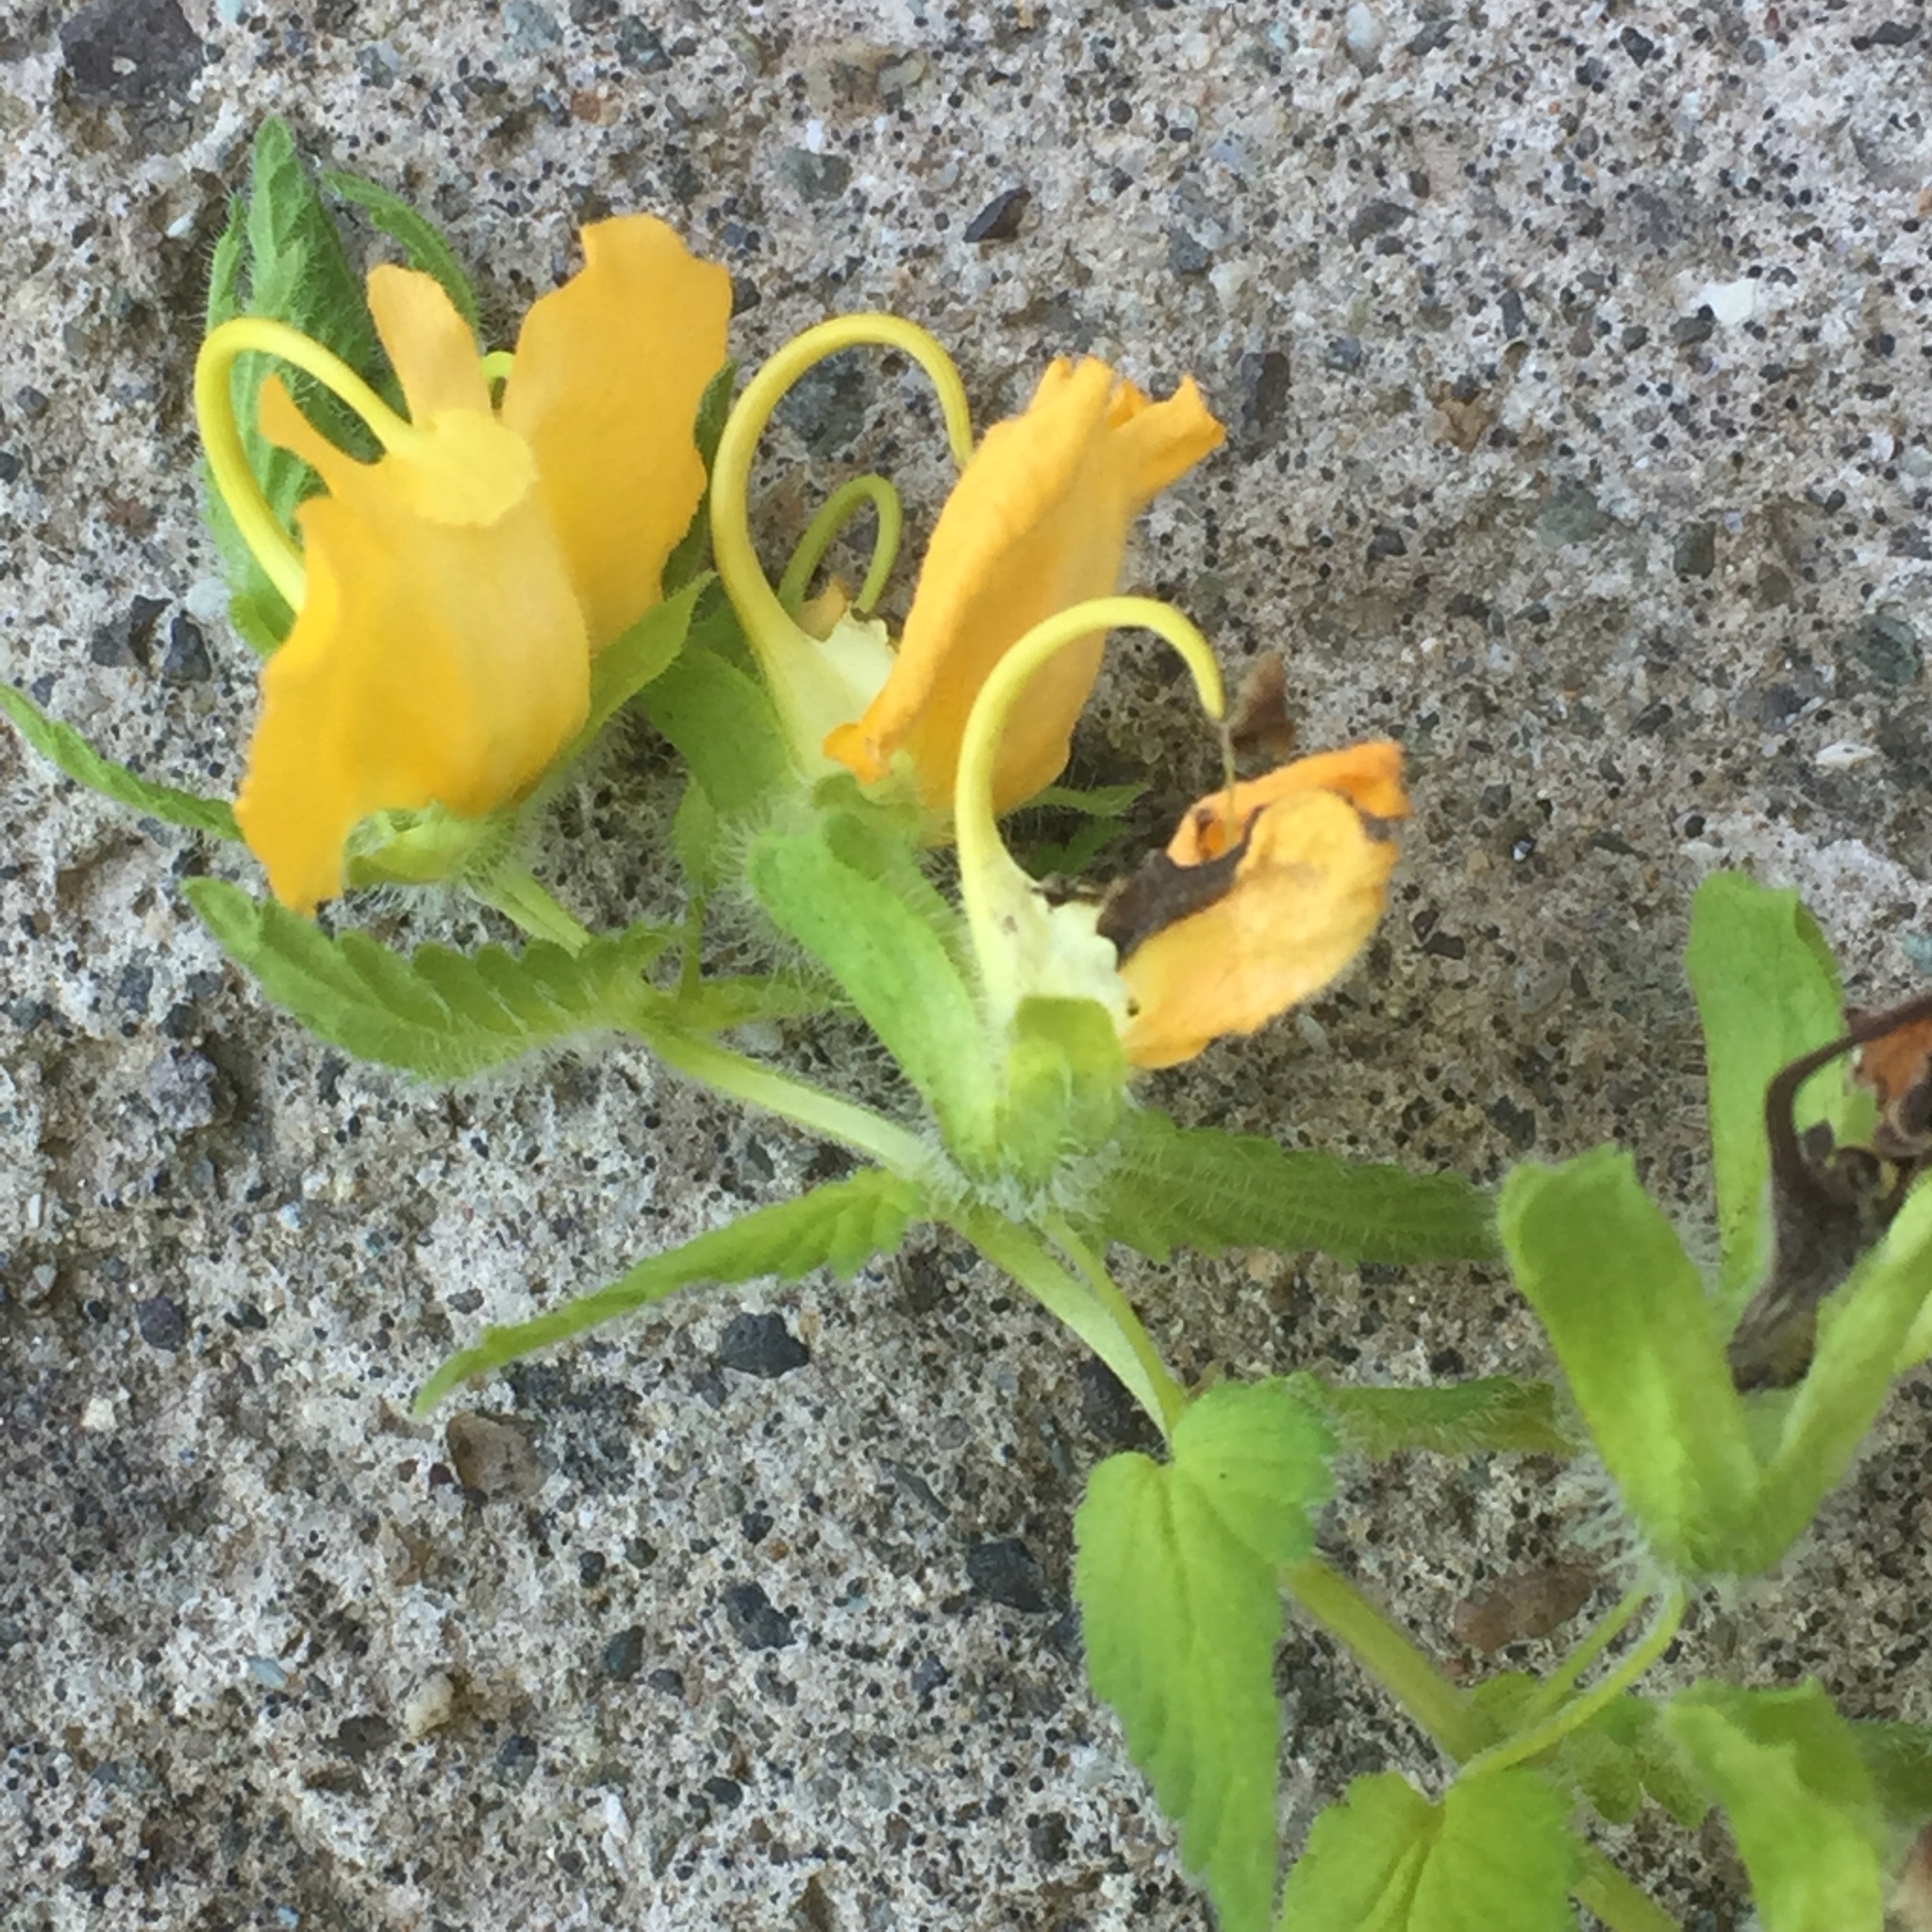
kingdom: Plantae
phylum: Tracheophyta
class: Magnoliopsida
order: Lamiales
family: Orobanchaceae
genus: Rhynchocorys
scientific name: Rhynchocorys orientalis
